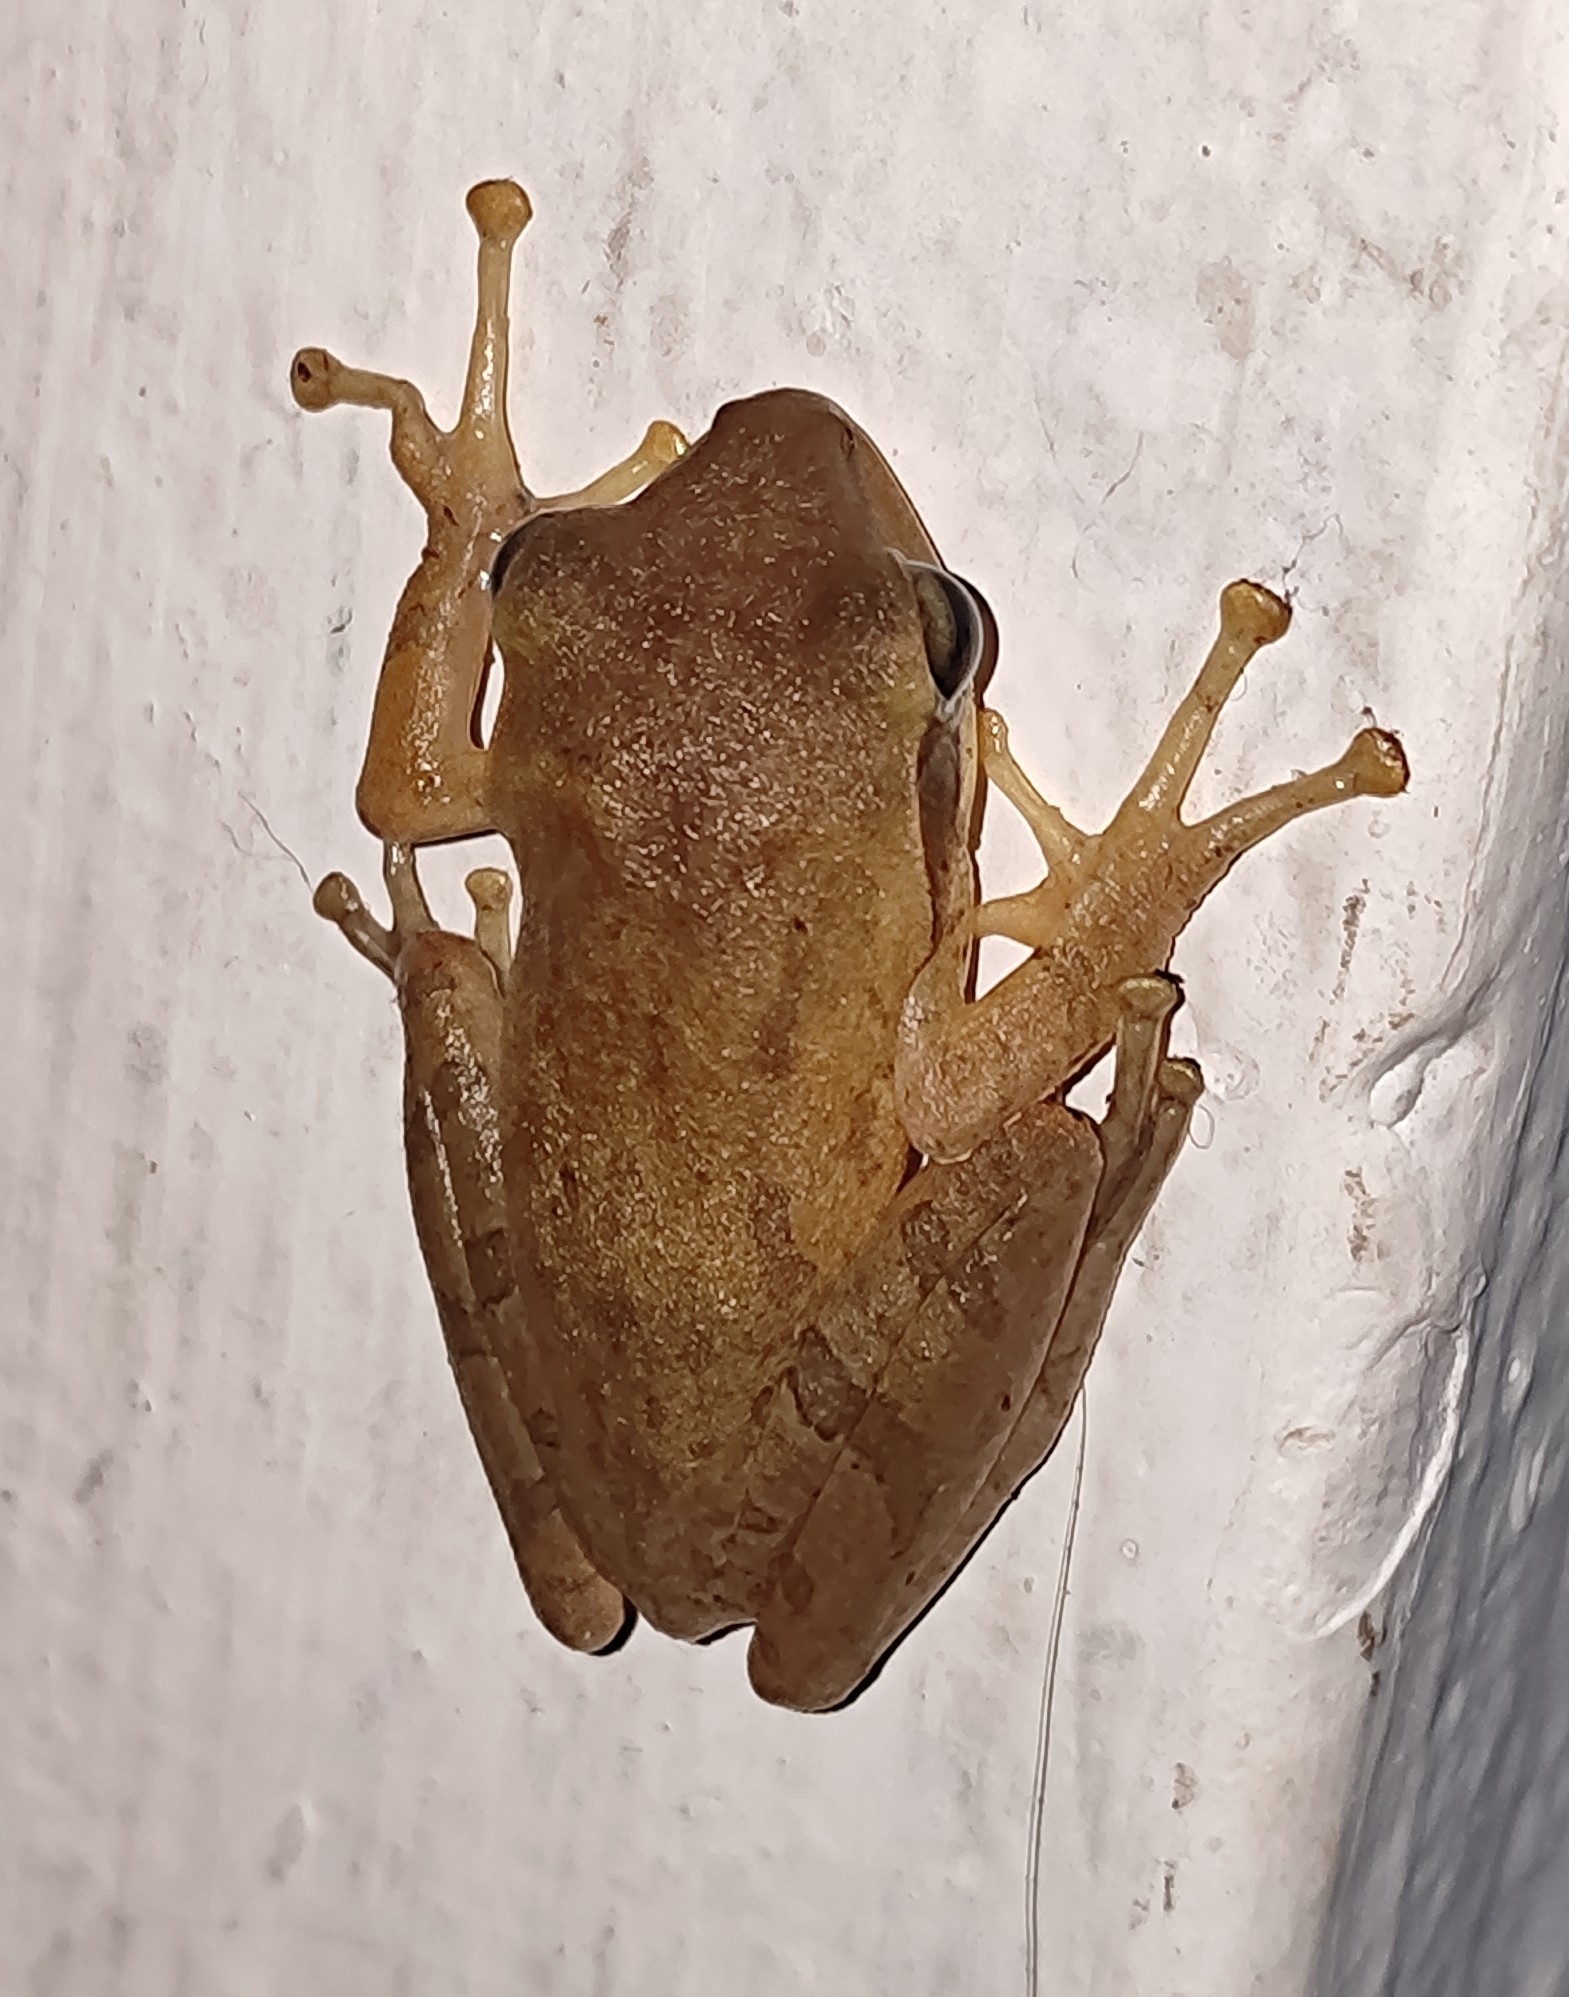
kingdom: Animalia
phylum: Chordata
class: Amphibia
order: Anura
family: Rhacophoridae
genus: Polypedates
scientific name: Polypedates maculatus
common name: Himalayan tree frog
